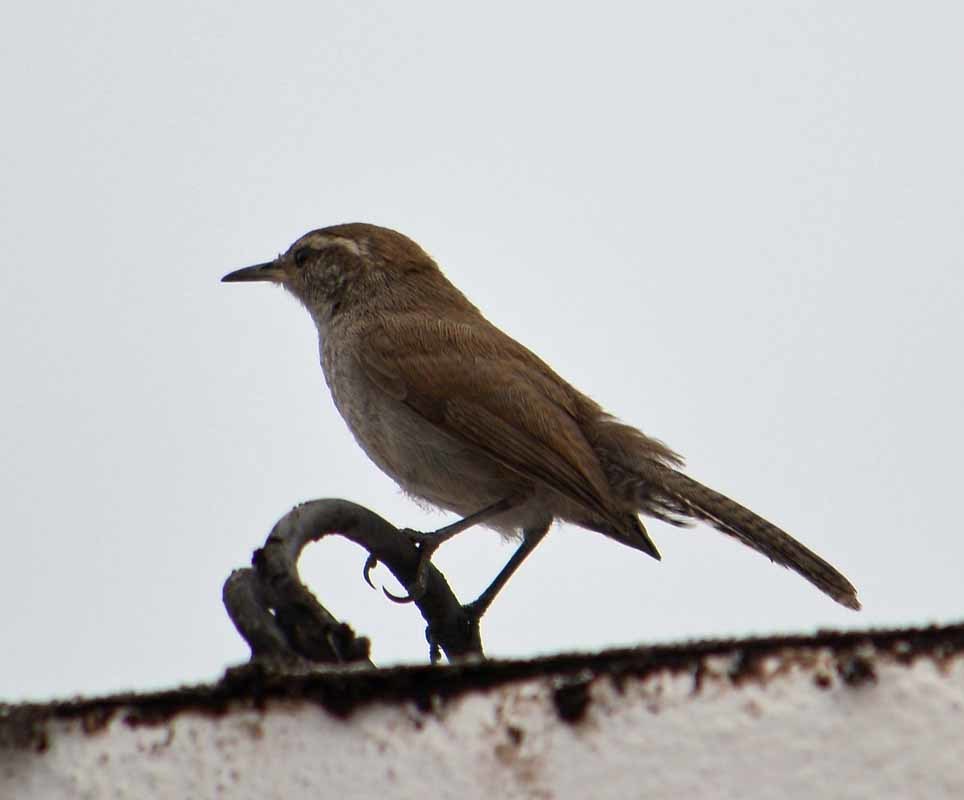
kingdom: Animalia
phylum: Chordata
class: Aves
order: Passeriformes
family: Troglodytidae
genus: Thryomanes
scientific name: Thryomanes bewickii
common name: Bewick's wren
